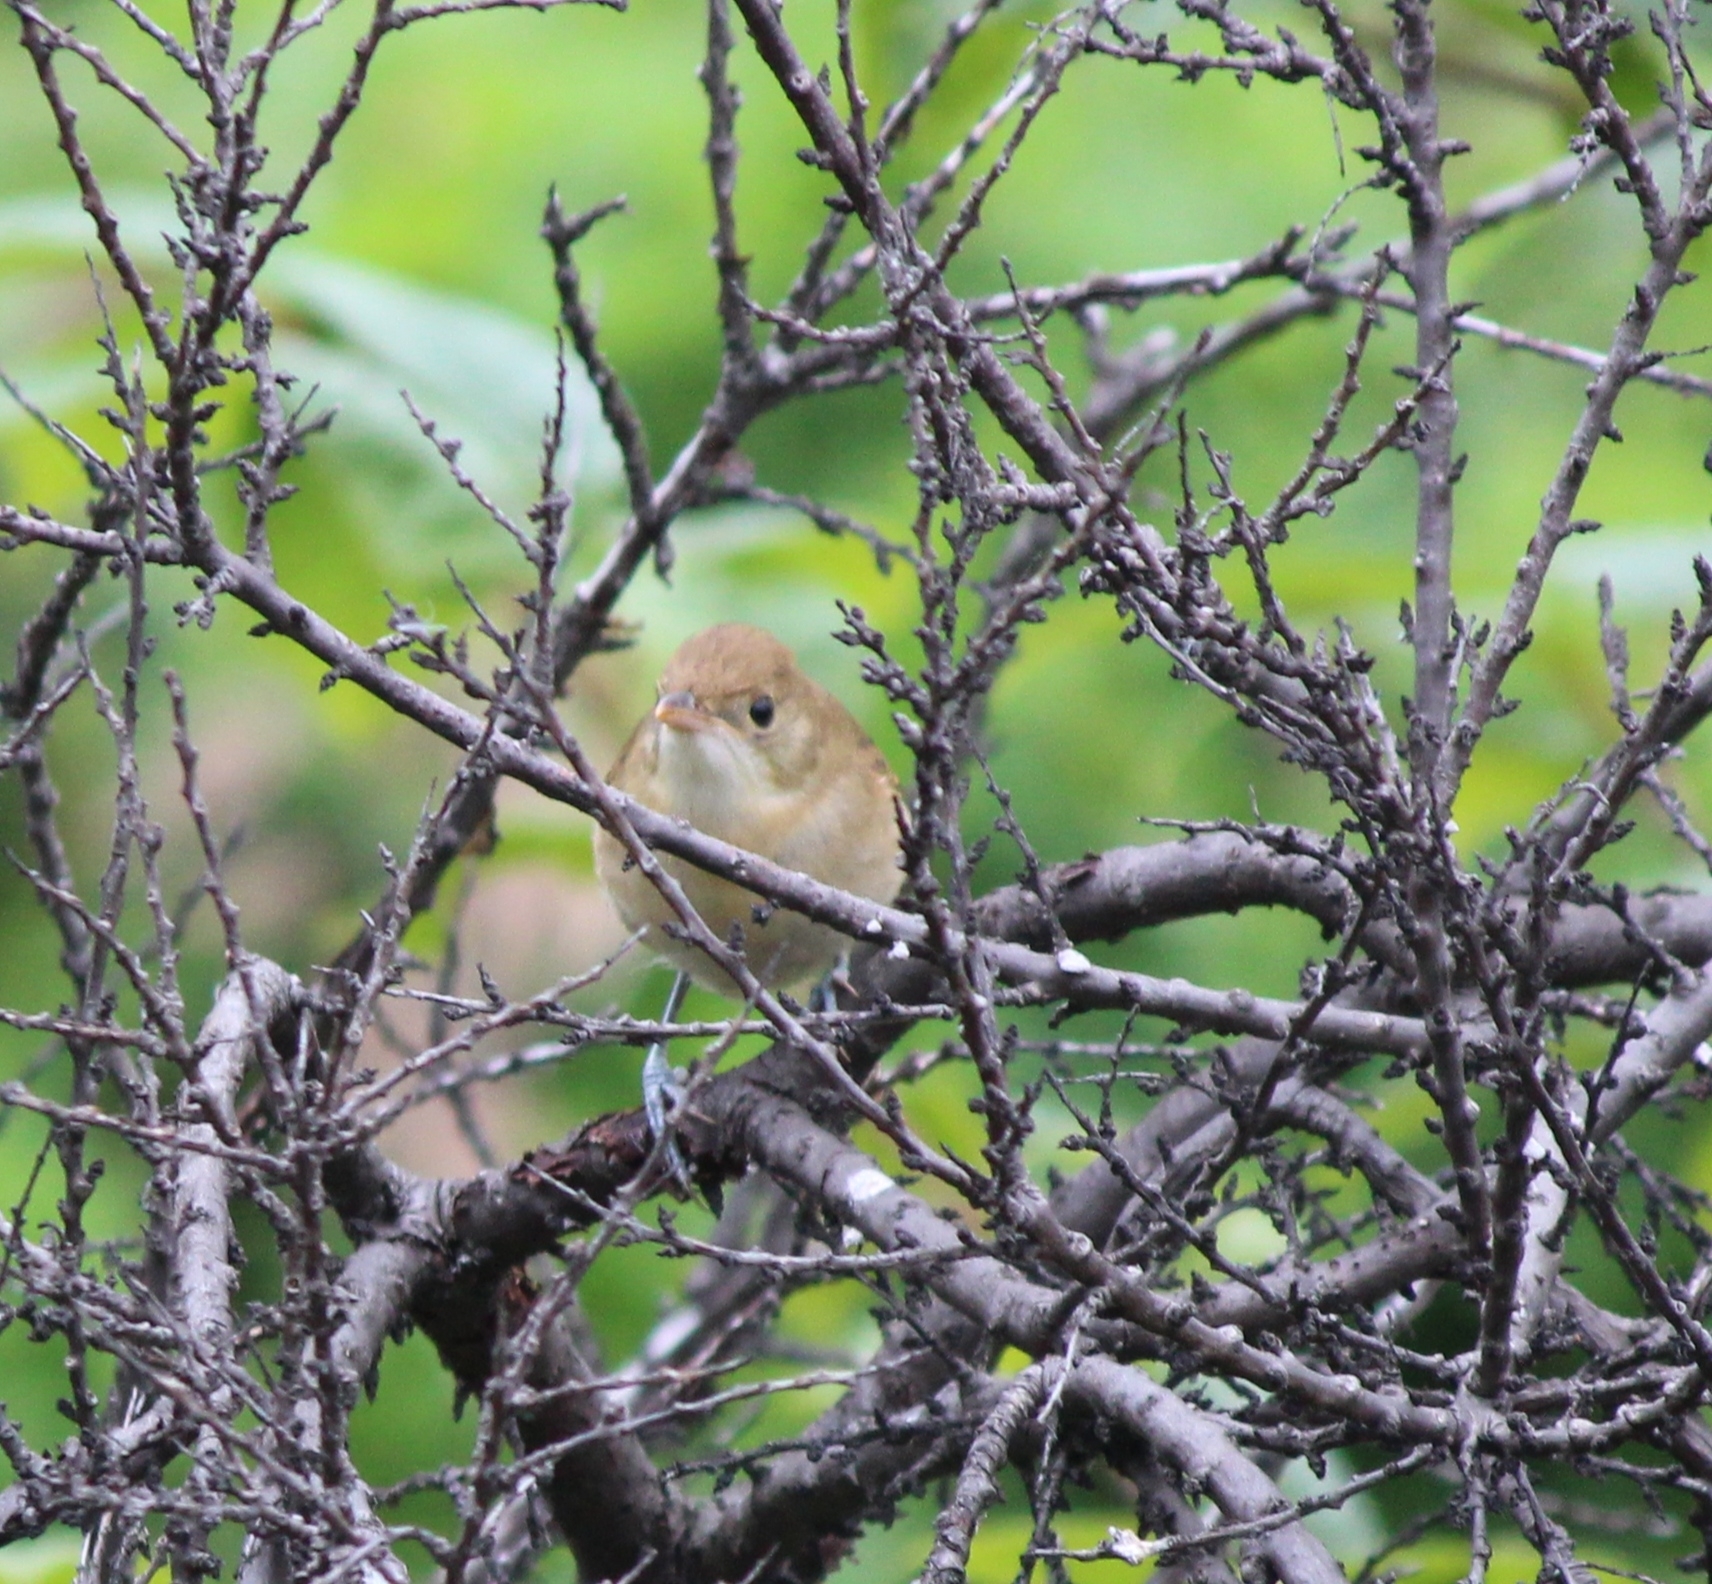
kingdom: Animalia
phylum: Chordata
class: Aves
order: Passeriformes
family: Acrocephalidae
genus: Iduna
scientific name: Iduna aedon
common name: Thick-billed warbler
